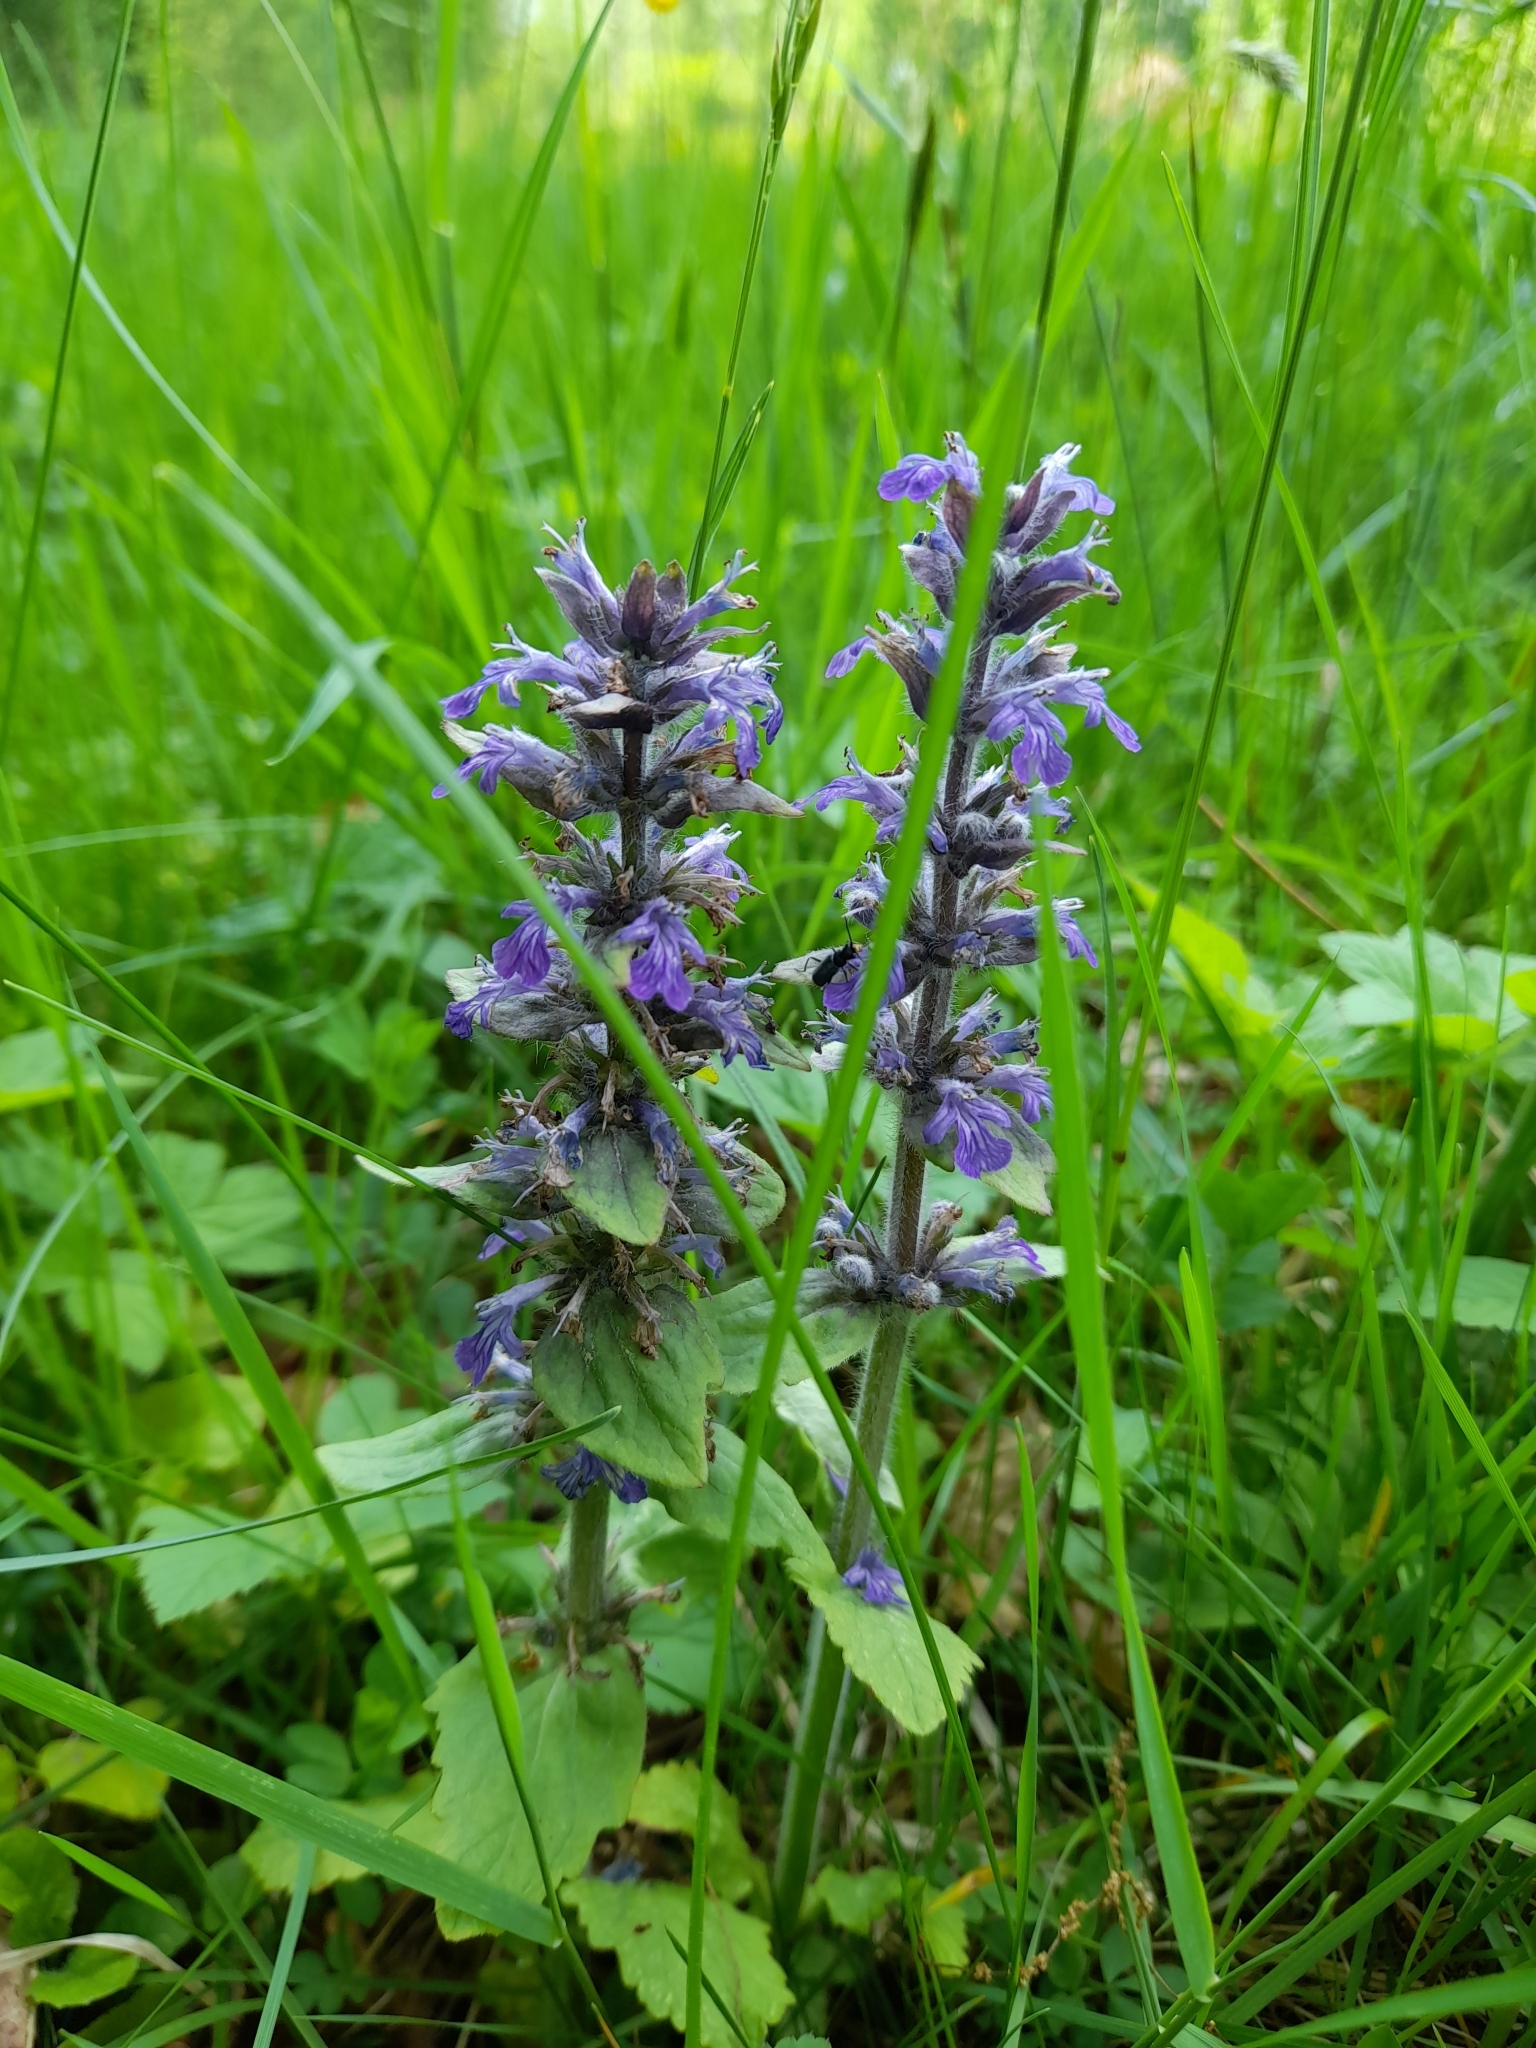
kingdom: Plantae
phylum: Tracheophyta
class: Magnoliopsida
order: Lamiales
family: Lamiaceae
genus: Ajuga
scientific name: Ajuga reptans
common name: Bugle
